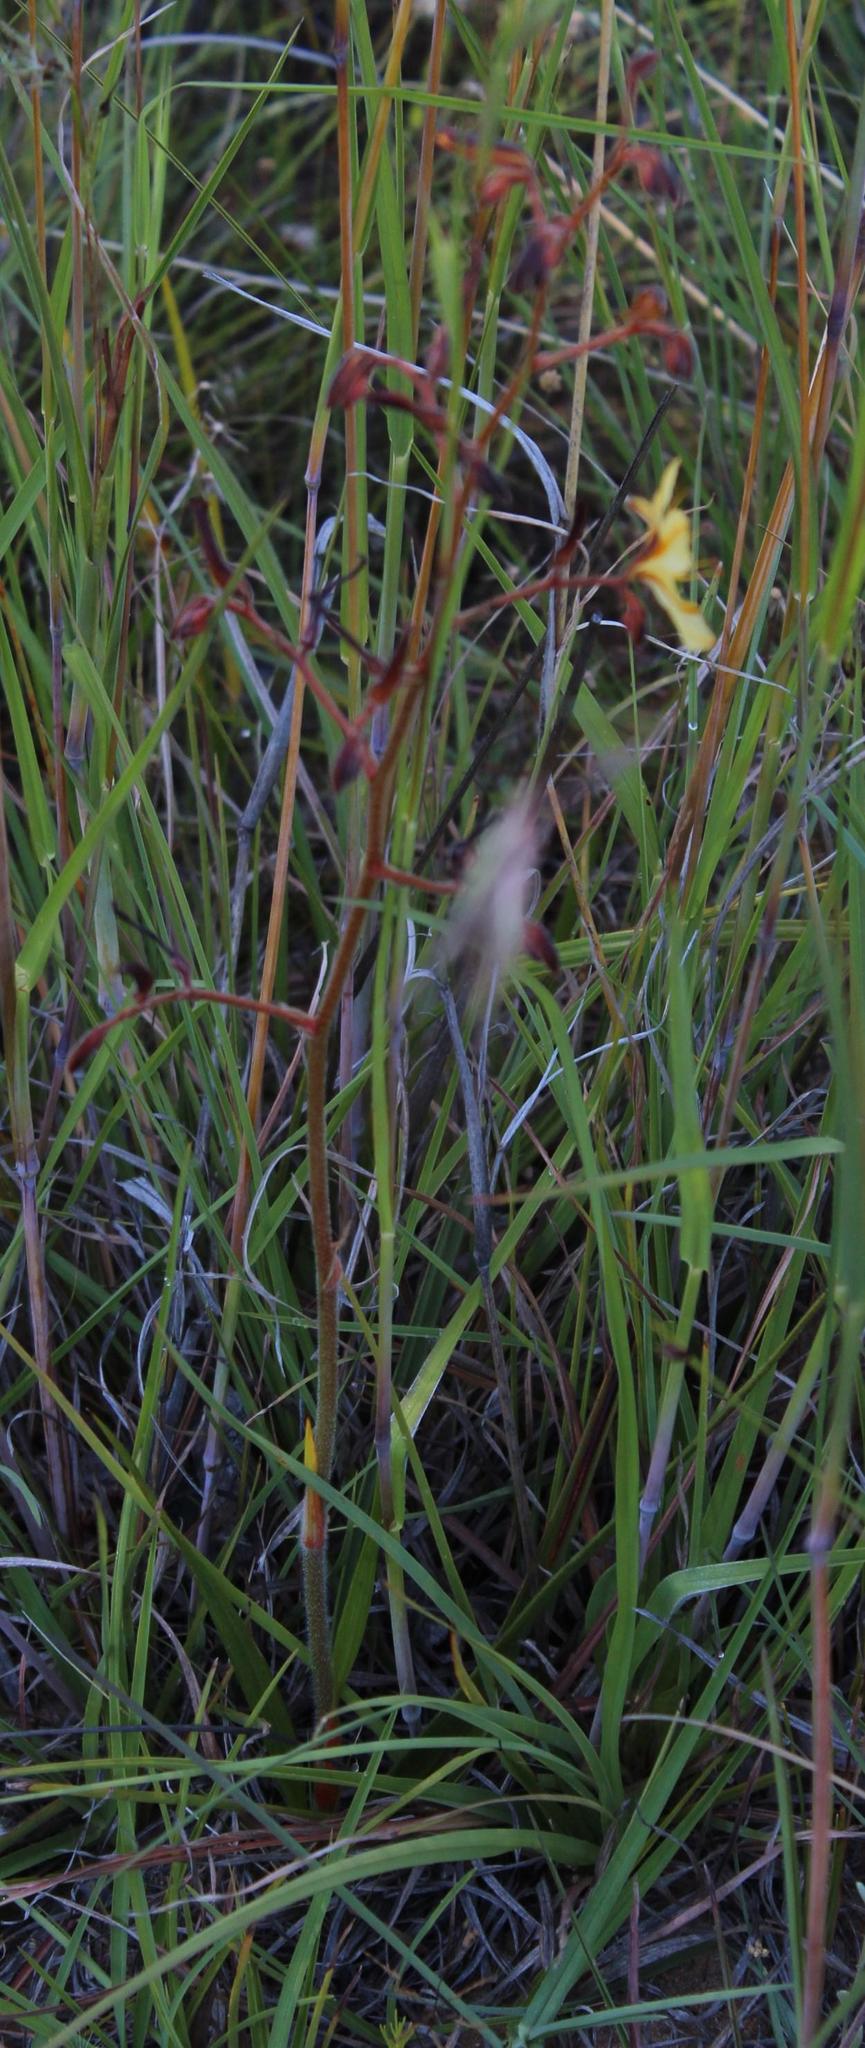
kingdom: Plantae
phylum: Tracheophyta
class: Liliopsida
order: Commelinales
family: Haemodoraceae
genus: Wachendorfia
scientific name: Wachendorfia paniculata
